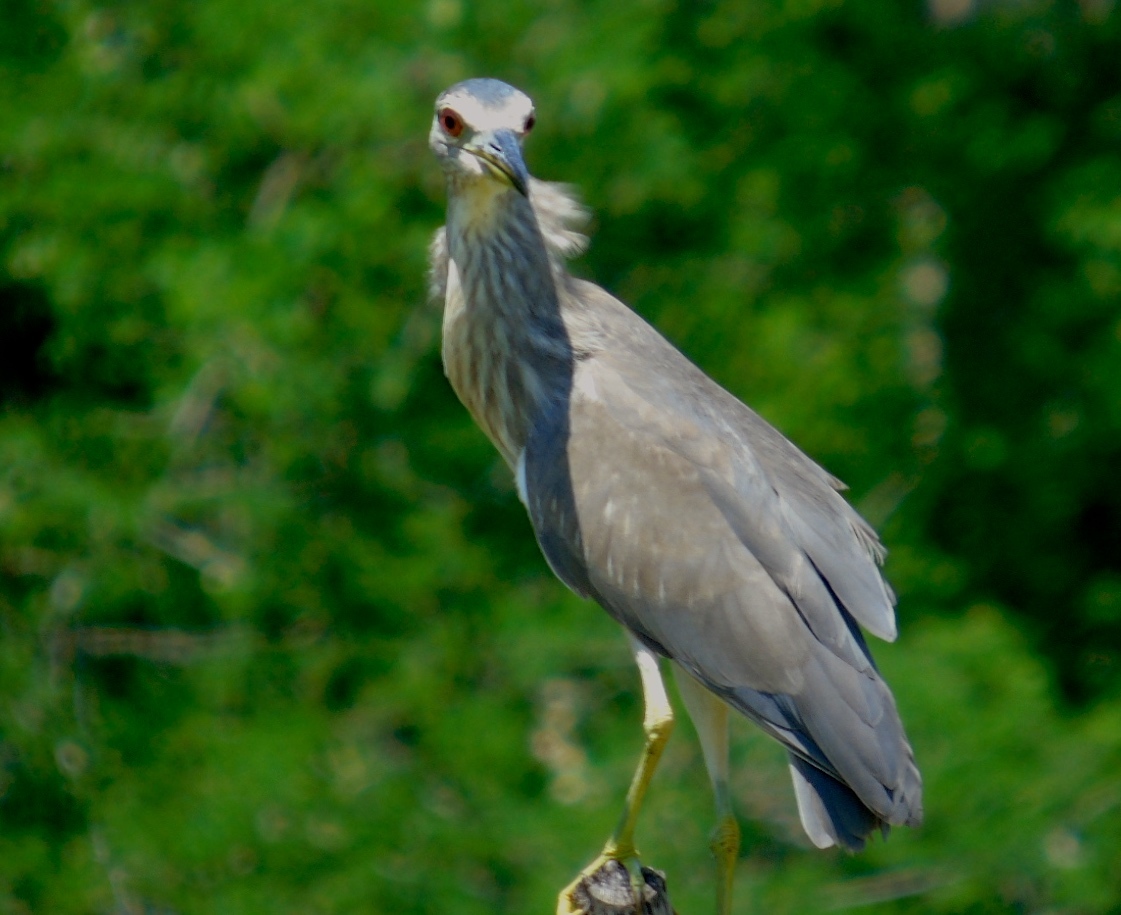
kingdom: Animalia
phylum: Chordata
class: Aves
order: Pelecaniformes
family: Ardeidae
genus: Nycticorax
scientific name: Nycticorax nycticorax
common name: Black-crowned night heron
